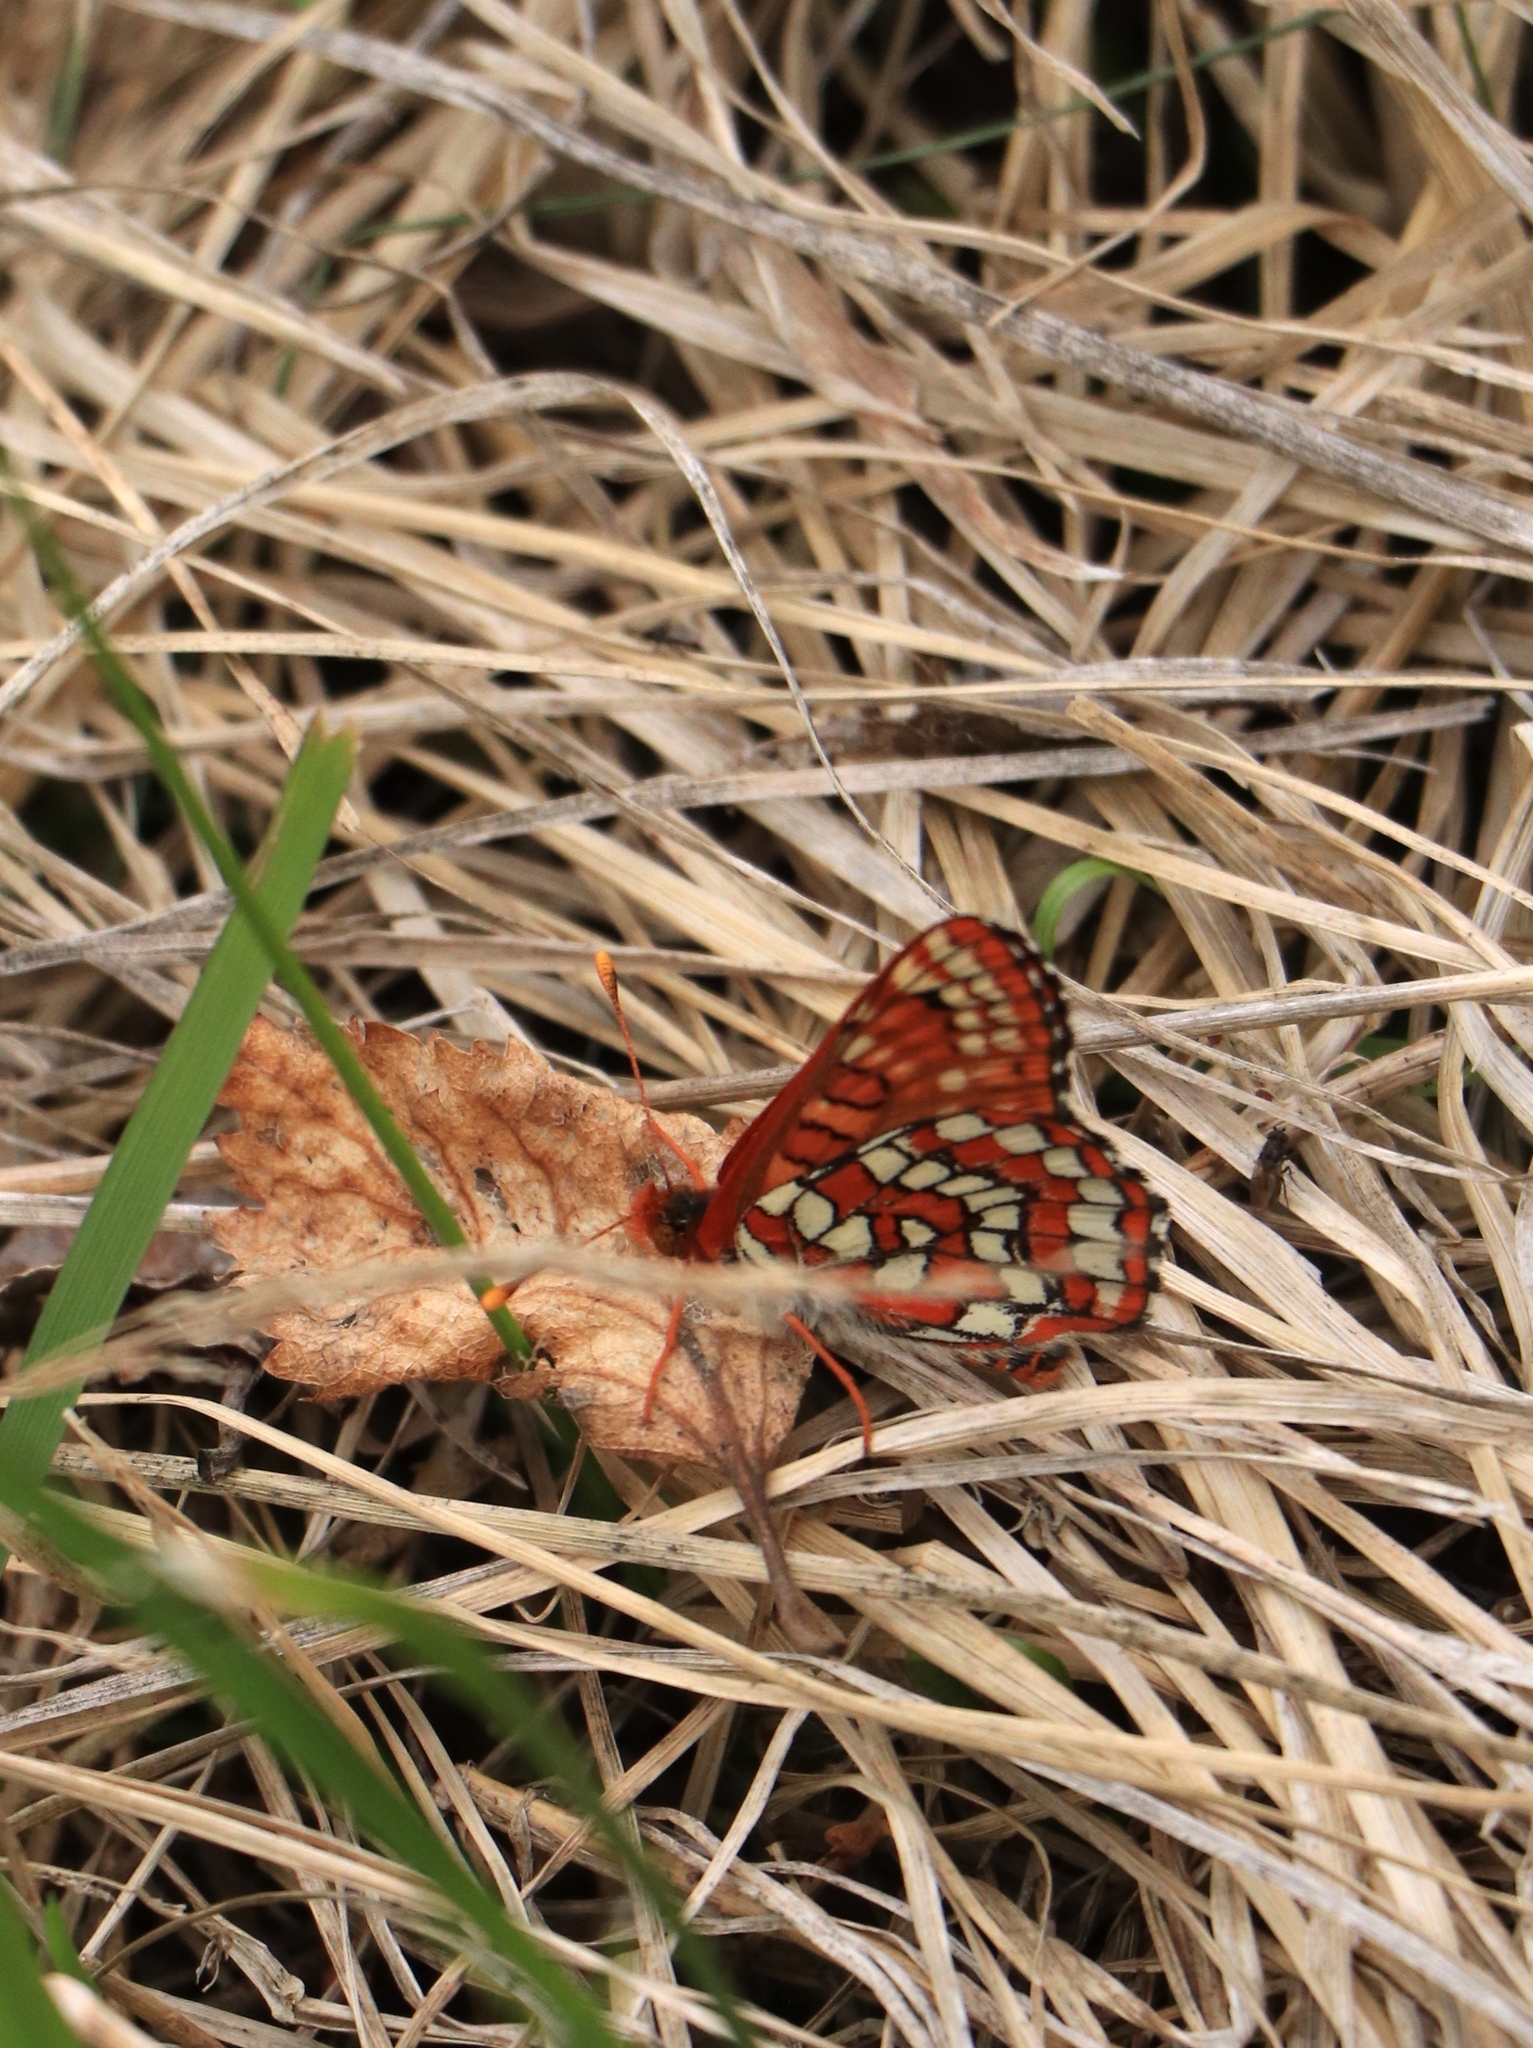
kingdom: Animalia
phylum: Arthropoda
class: Insecta
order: Lepidoptera
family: Nymphalidae
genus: Occidryas
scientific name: Occidryas anicia
